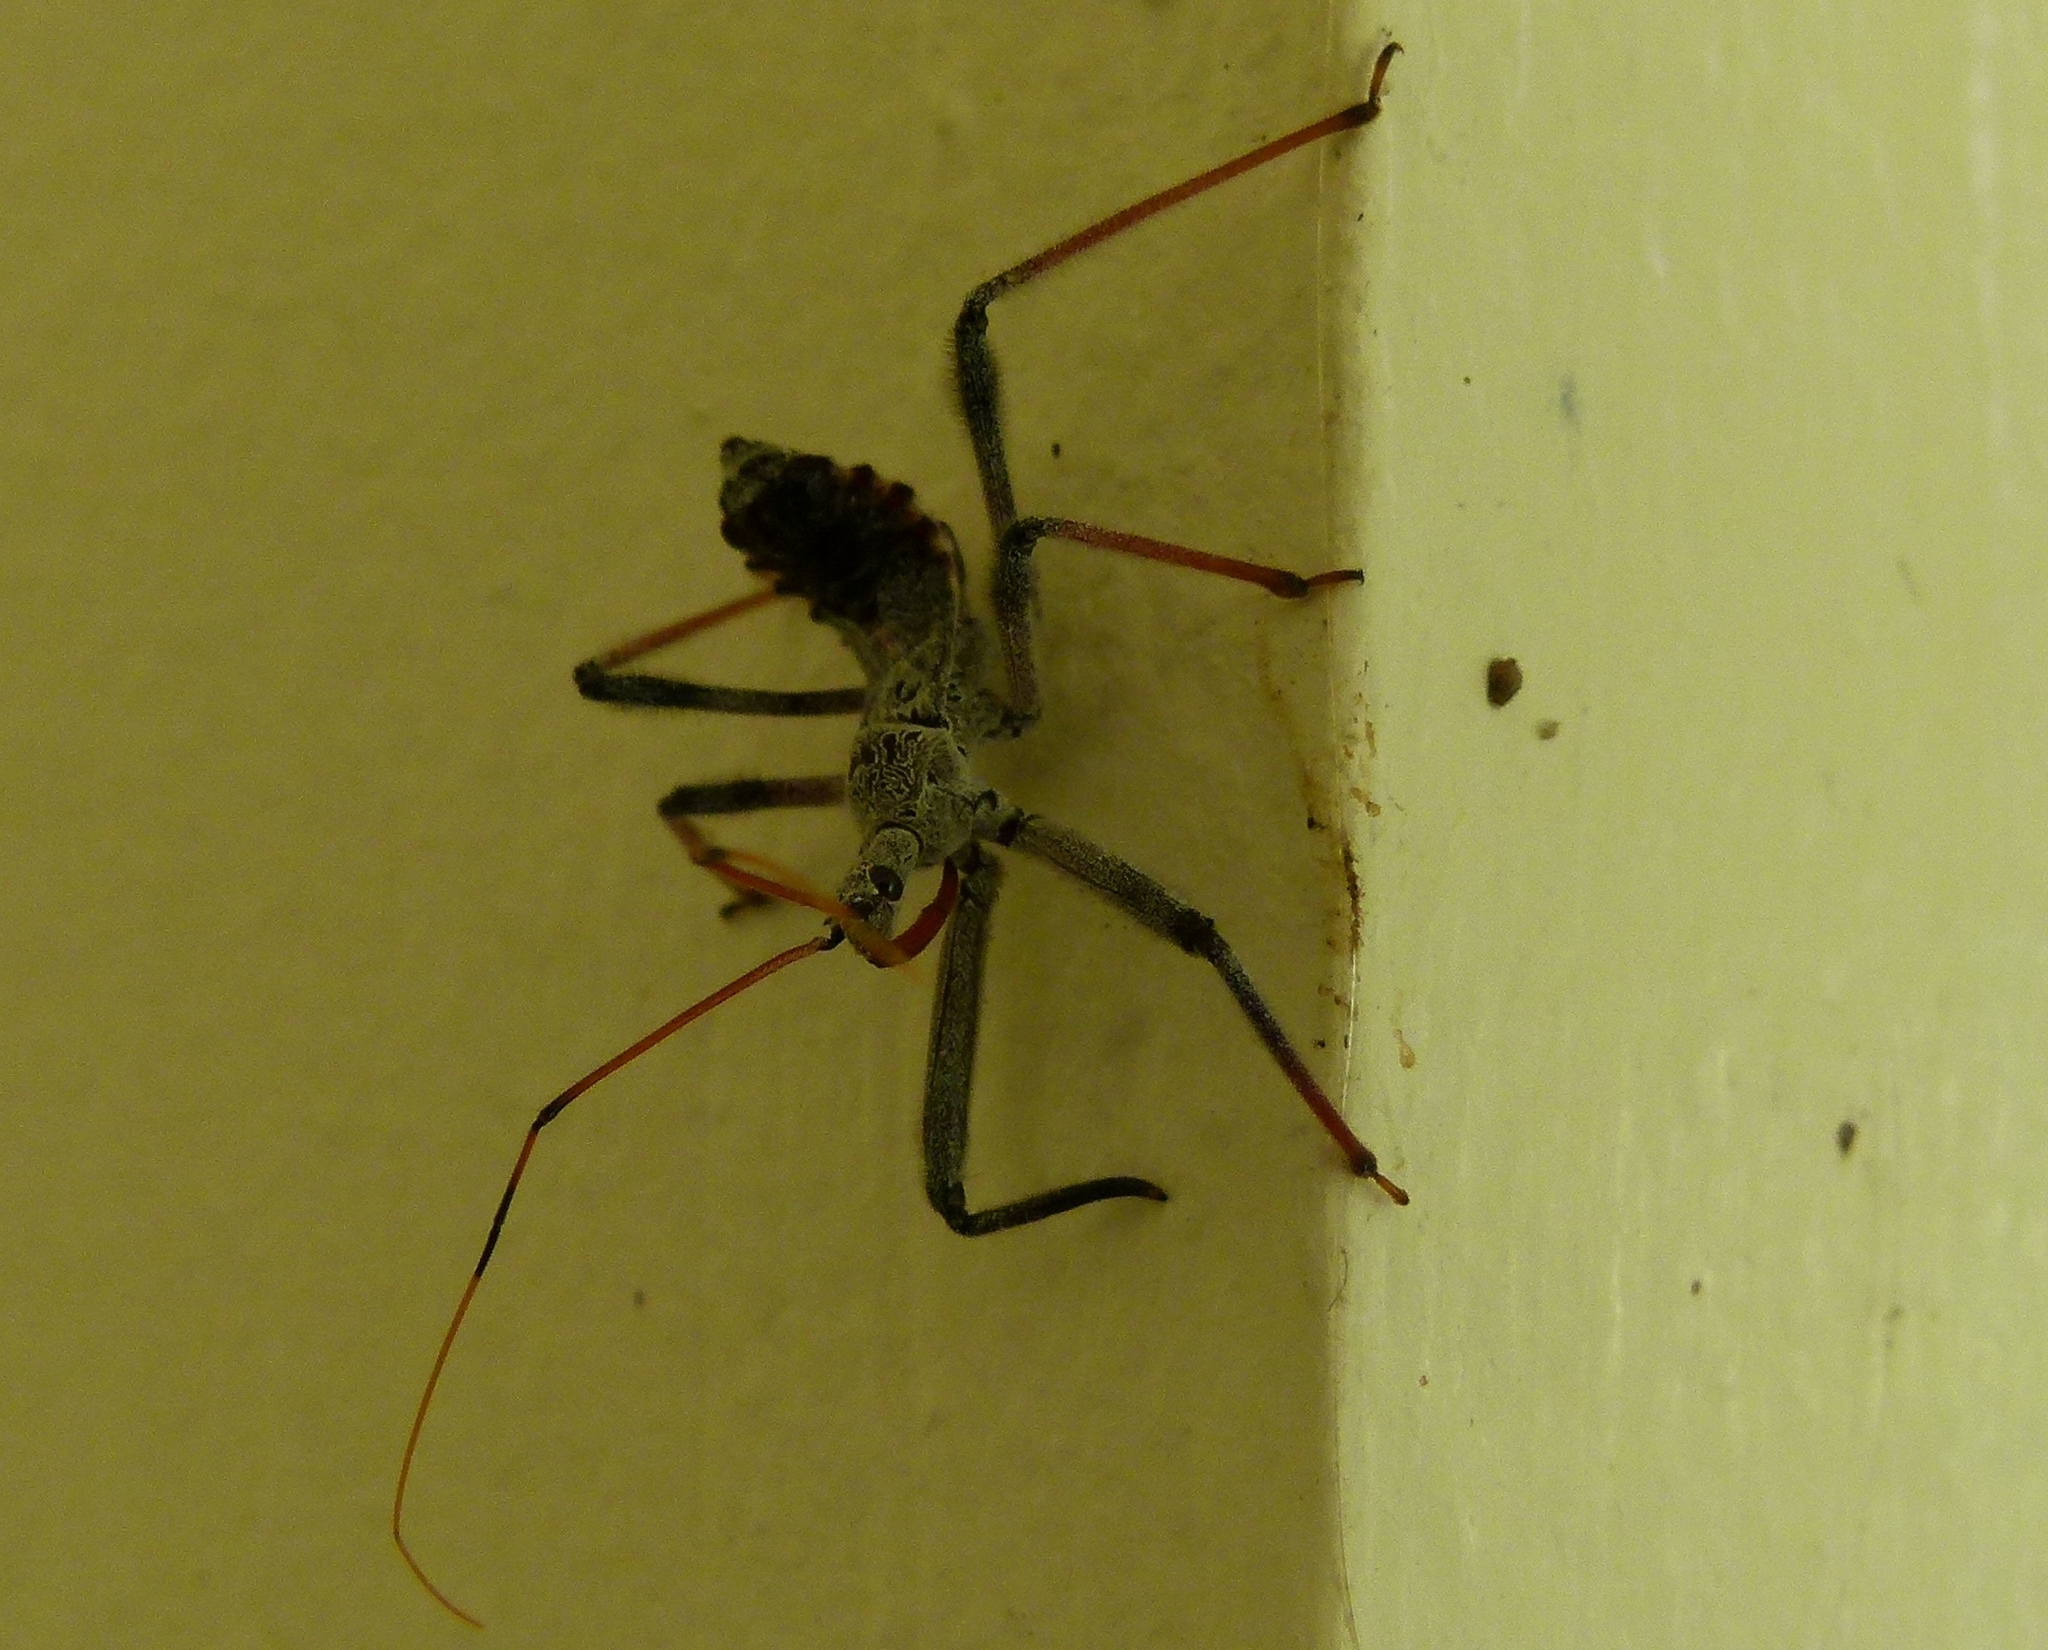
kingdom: Animalia
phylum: Arthropoda
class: Insecta
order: Hemiptera
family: Reduviidae
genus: Arilus
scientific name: Arilus cristatus
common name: North american wheel bug
